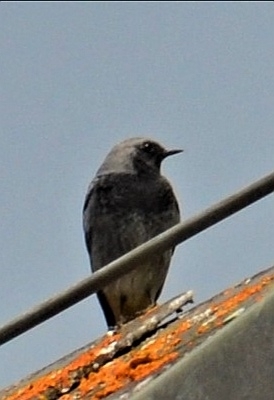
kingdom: Animalia
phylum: Chordata
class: Aves
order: Passeriformes
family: Muscicapidae
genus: Phoenicurus
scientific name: Phoenicurus ochruros
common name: Black redstart
